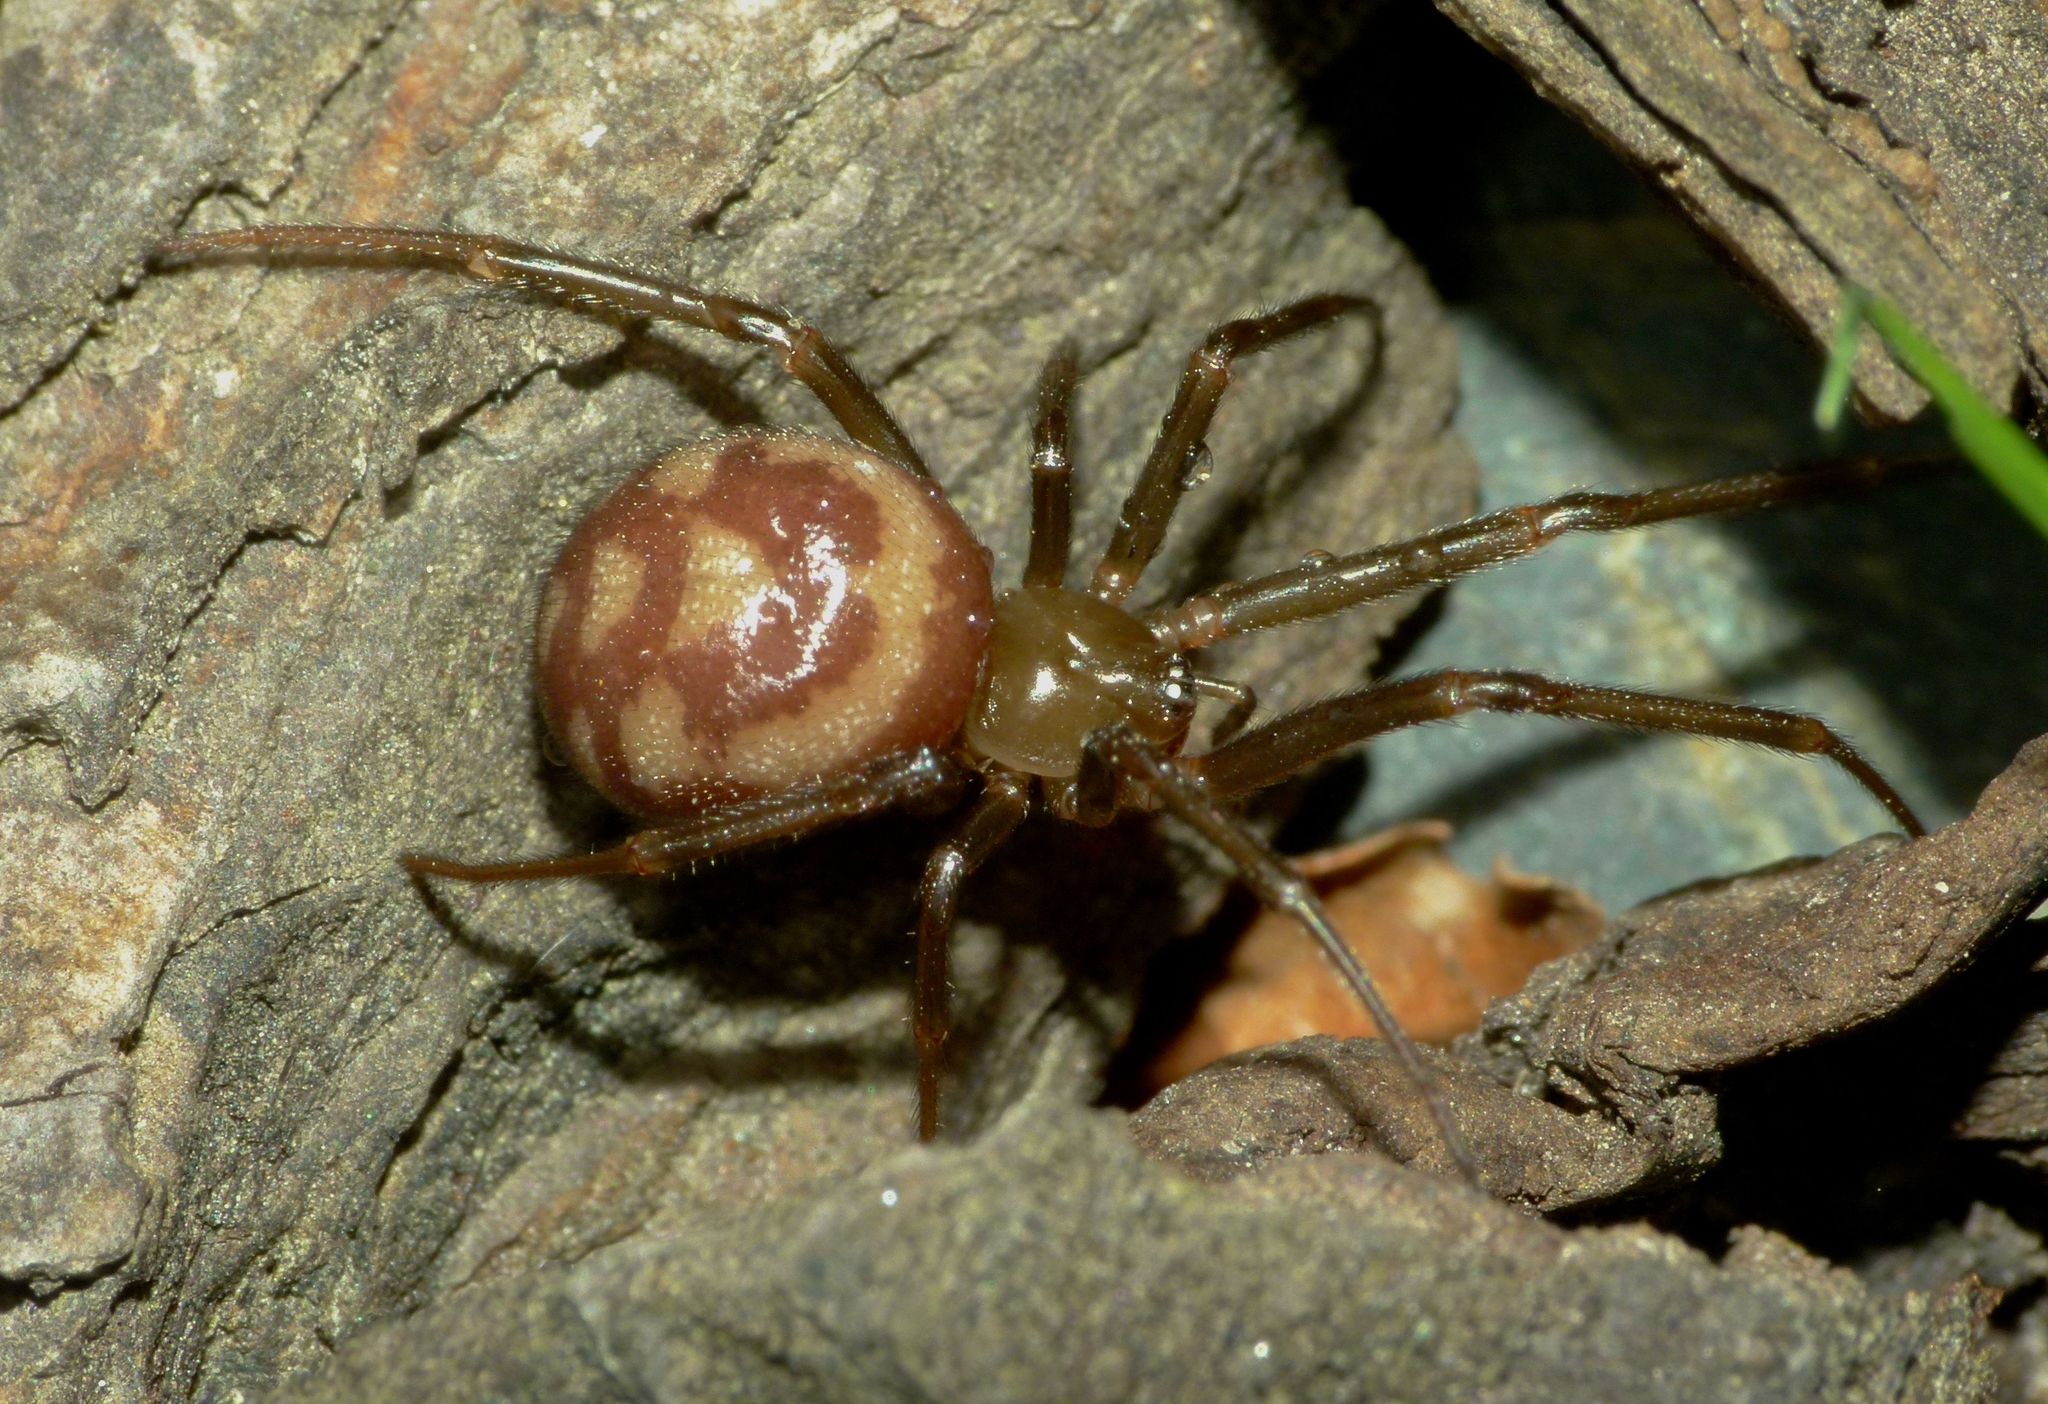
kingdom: Animalia
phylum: Arthropoda
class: Arachnida
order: Araneae
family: Theridiidae
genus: Steatoda
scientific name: Steatoda grossa
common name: False black widow
